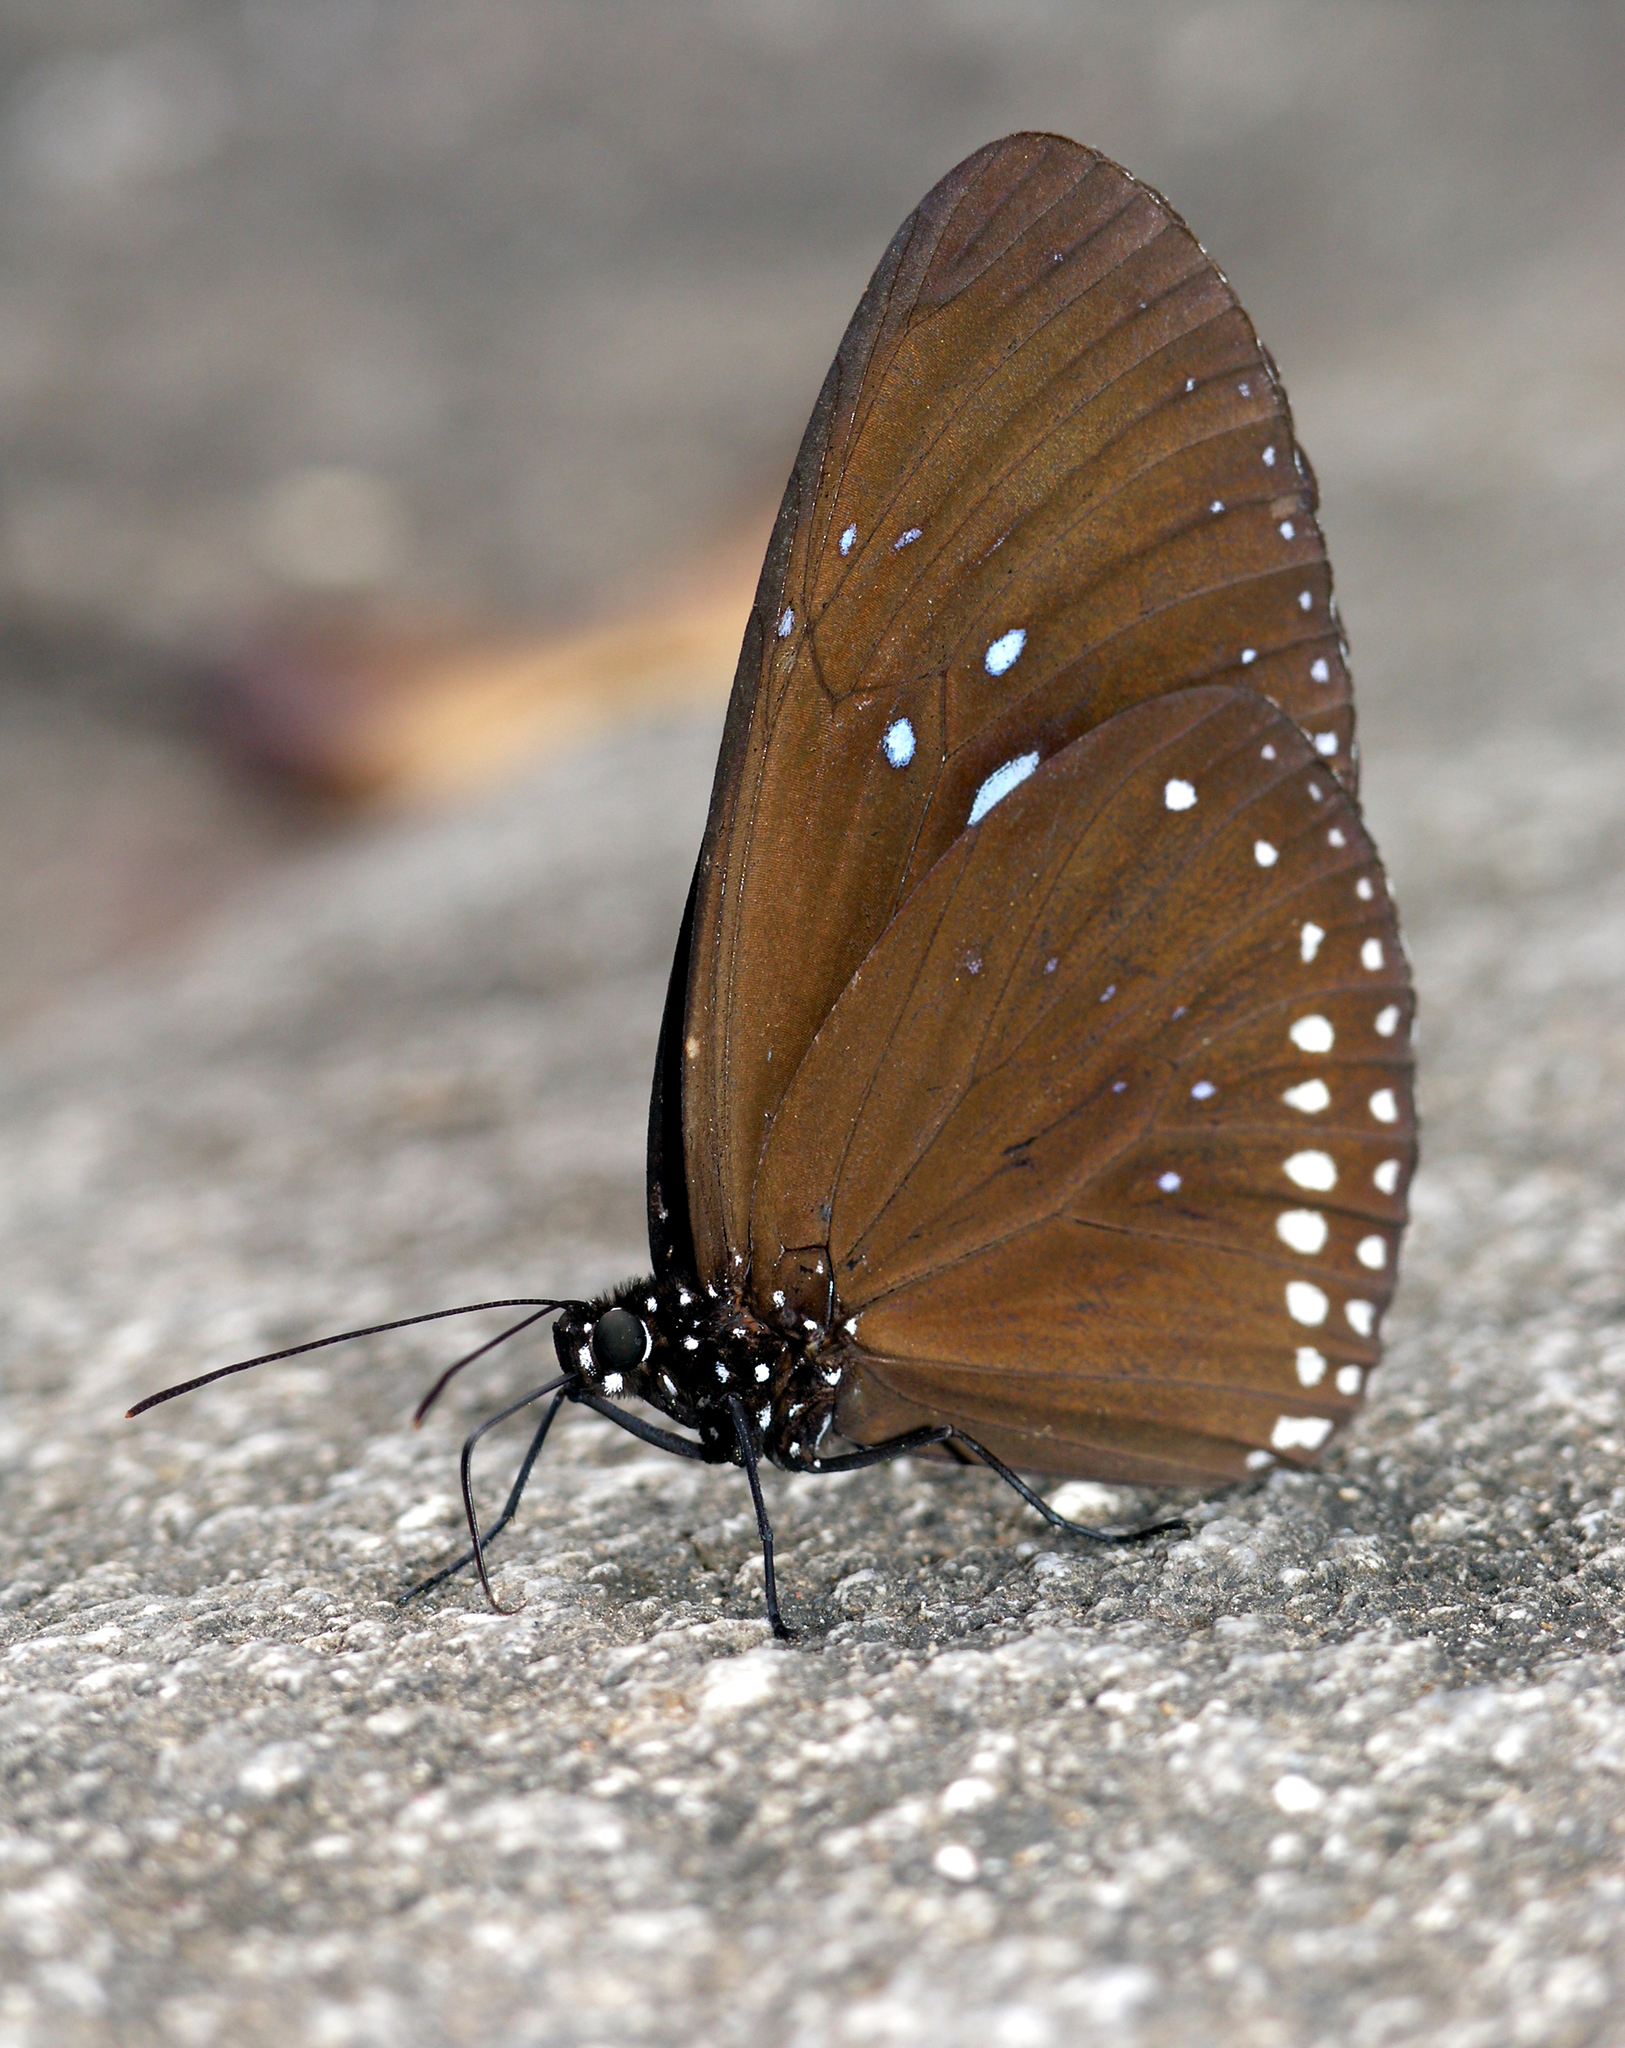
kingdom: Animalia
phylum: Arthropoda
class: Insecta
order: Lepidoptera
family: Nymphalidae
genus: Euploea
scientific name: Euploea sylvester
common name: Double-branded crow butterfly
